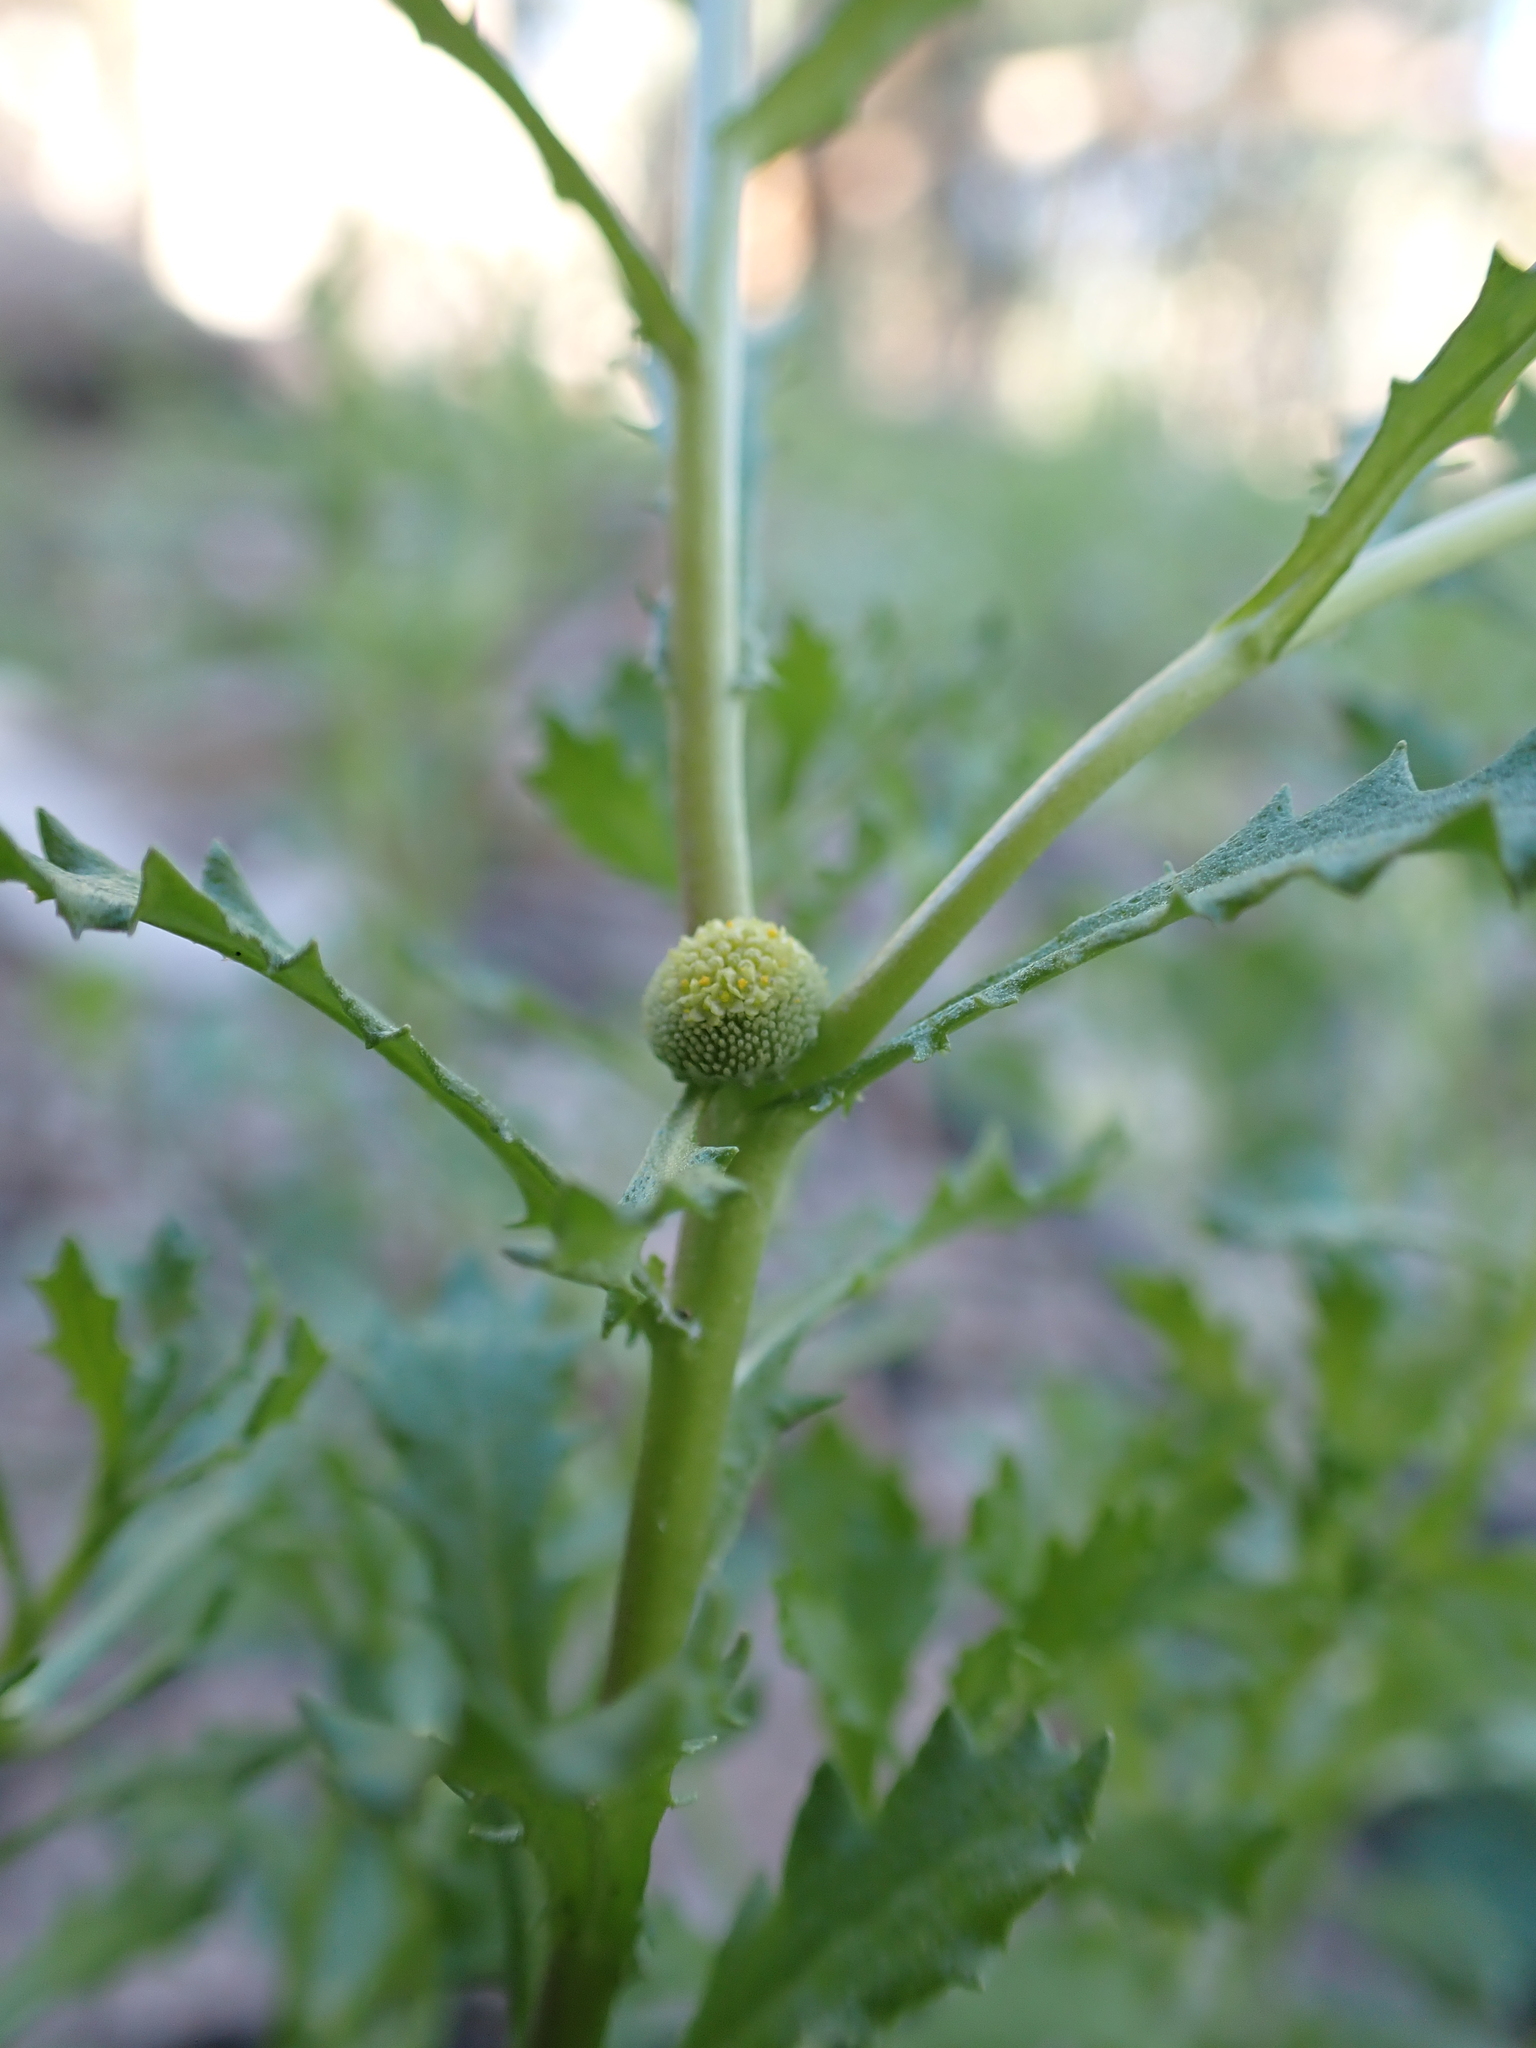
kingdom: Plantae
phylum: Tracheophyta
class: Magnoliopsida
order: Asterales
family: Asteraceae
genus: Centipeda
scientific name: Centipeda cunninghamii
